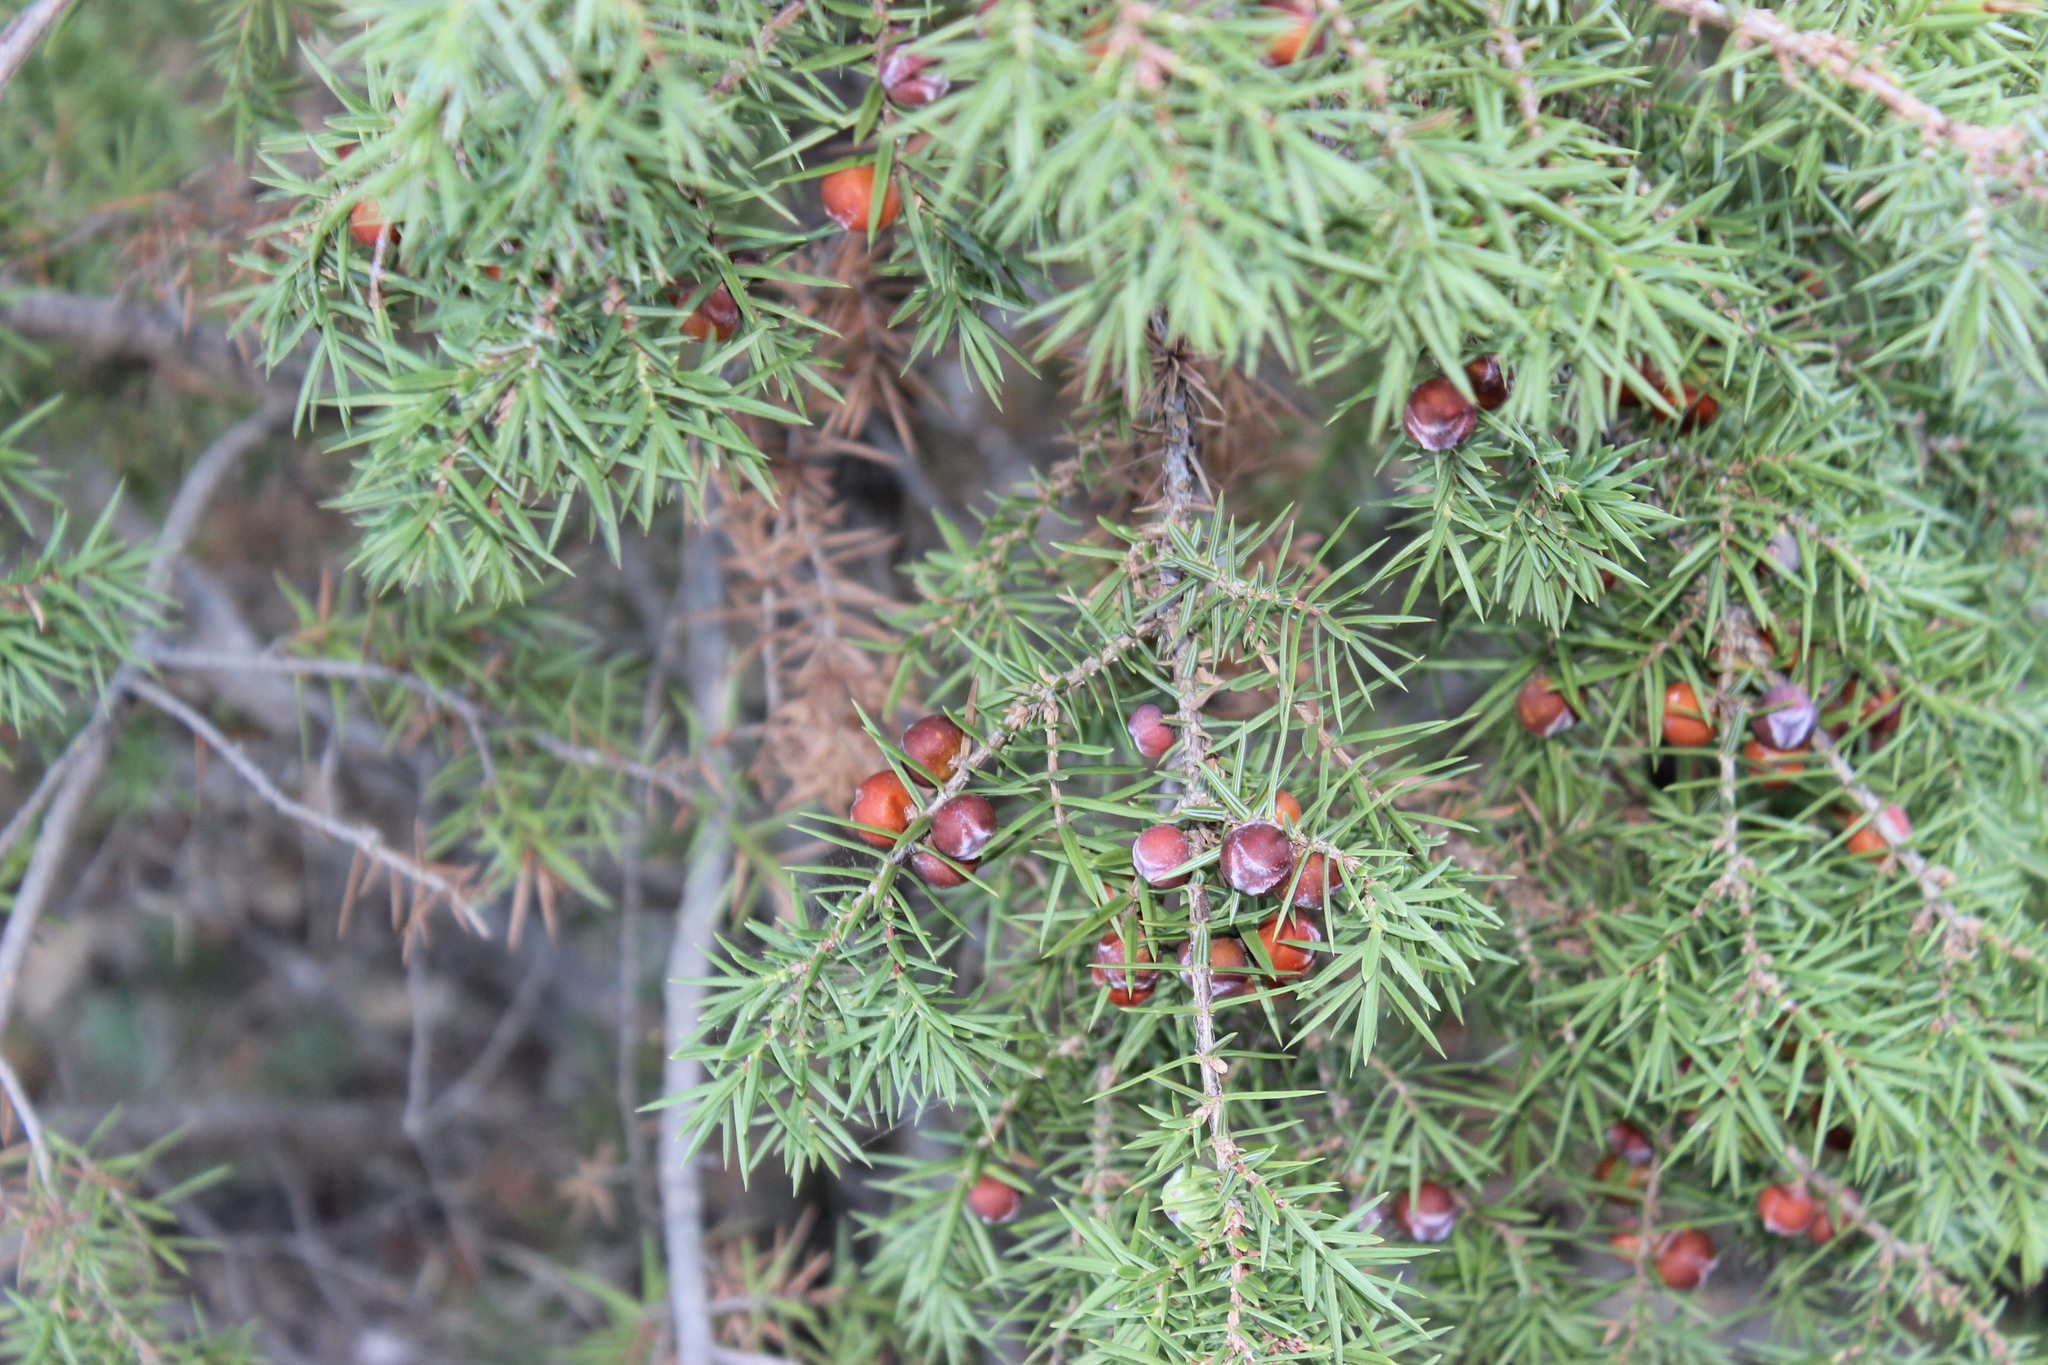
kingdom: Plantae
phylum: Tracheophyta
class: Pinopsida
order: Pinales
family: Cupressaceae
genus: Juniperus
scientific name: Juniperus oxycedrus
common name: Prickly juniper
